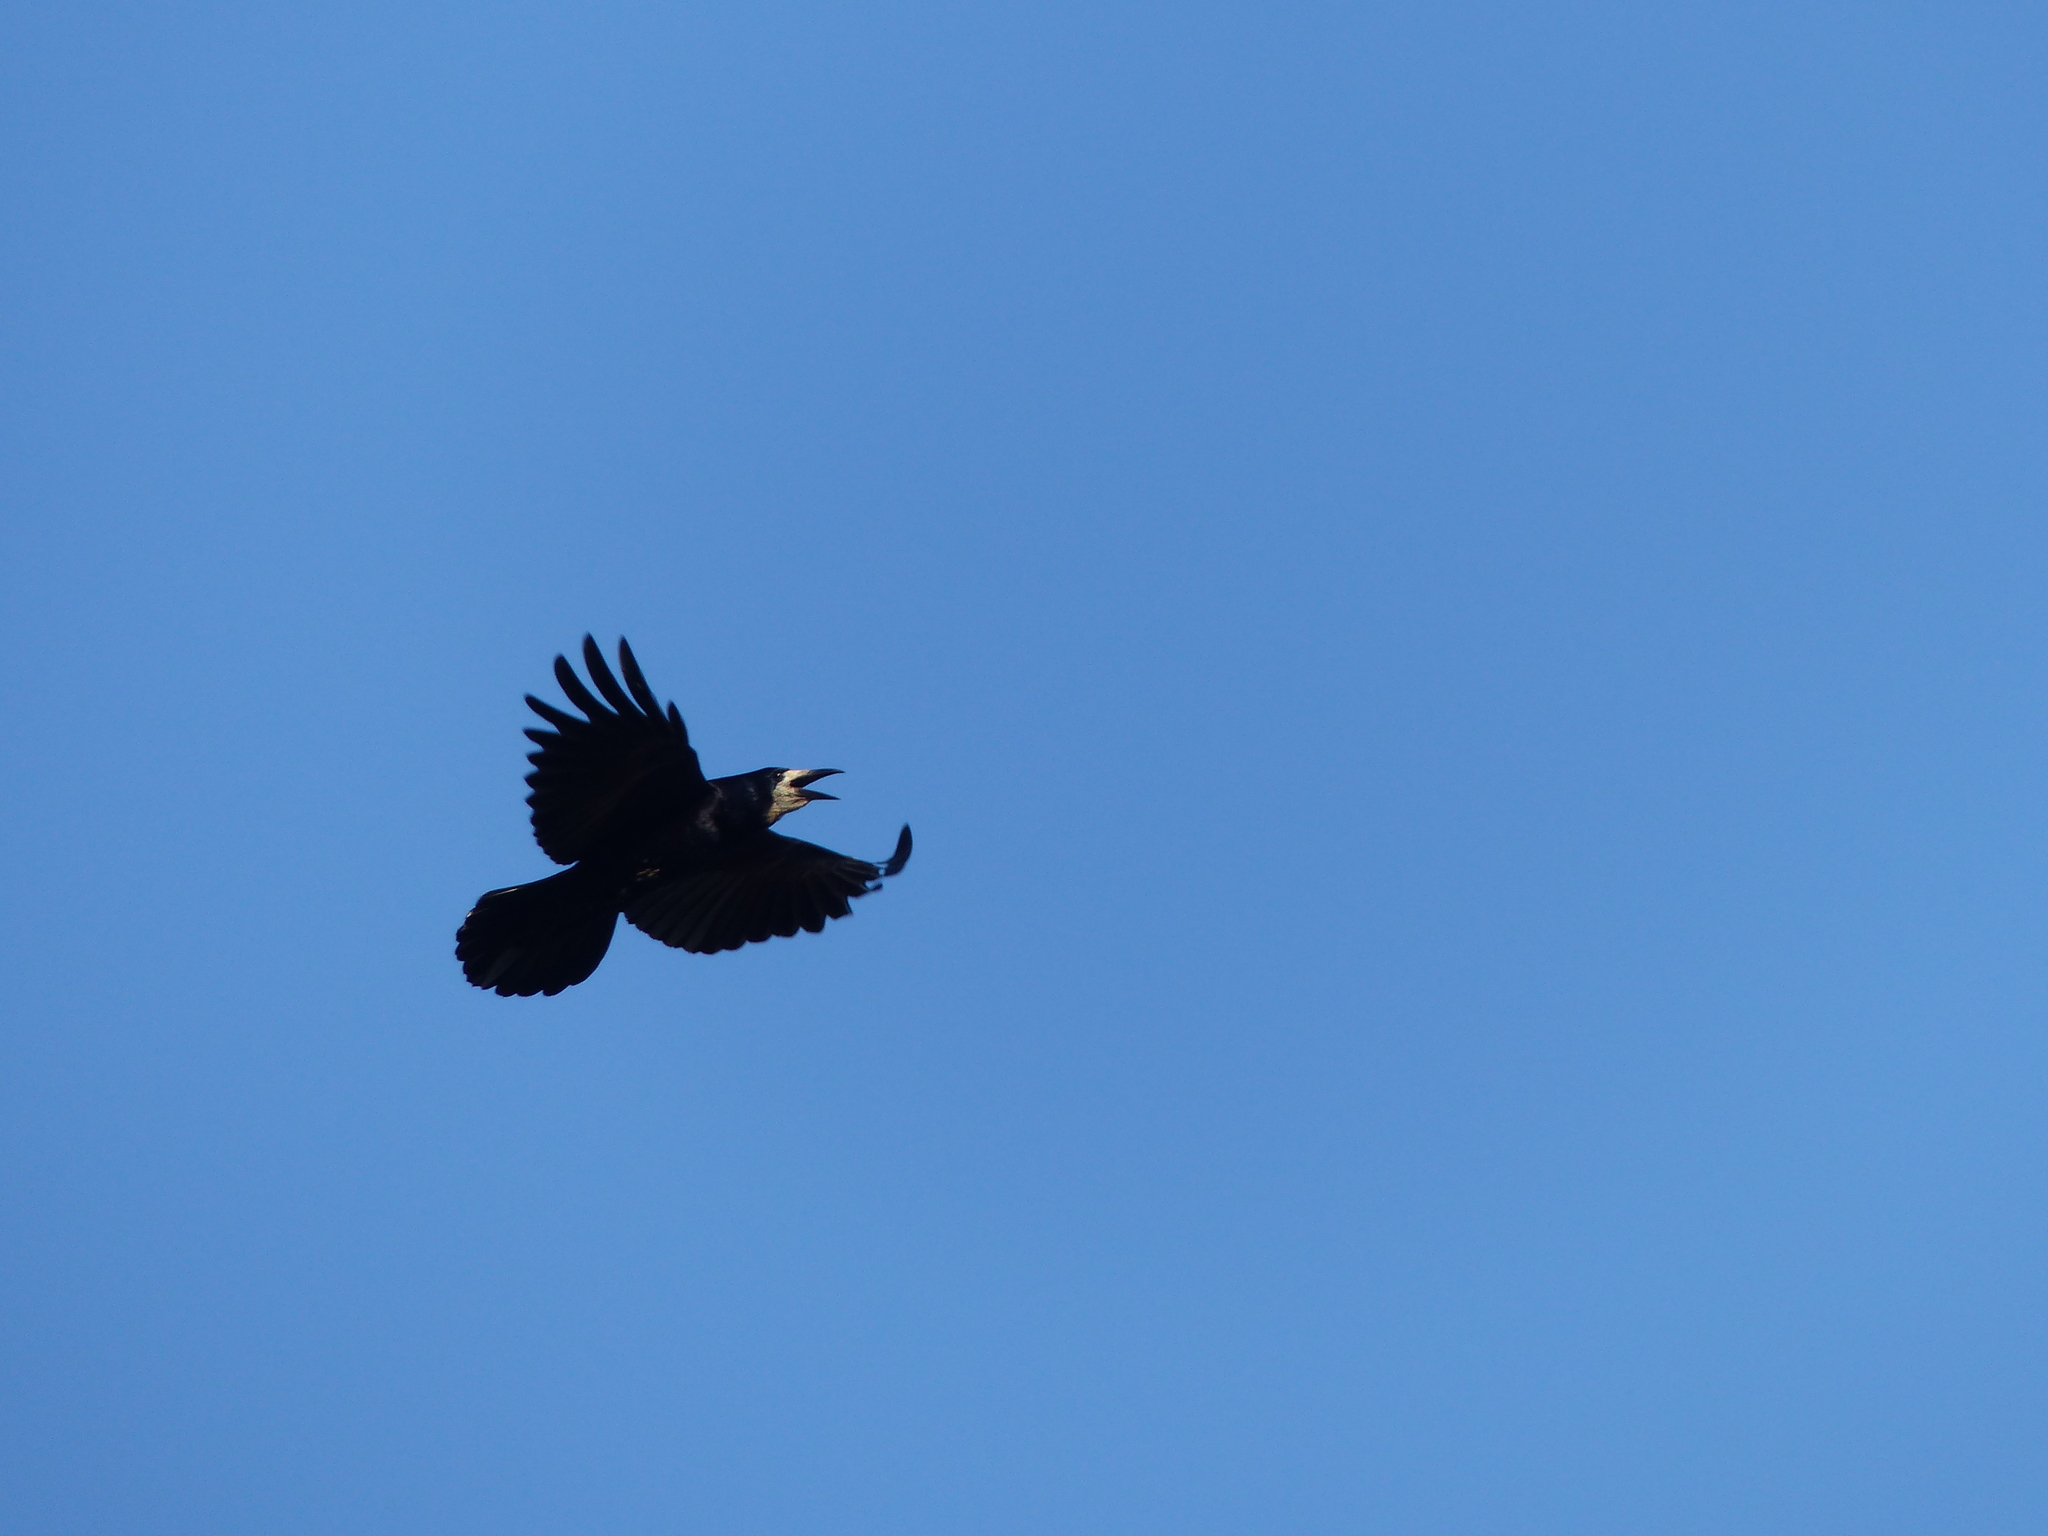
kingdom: Animalia
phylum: Chordata
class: Aves
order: Passeriformes
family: Corvidae
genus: Corvus
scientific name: Corvus frugilegus
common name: Rook
